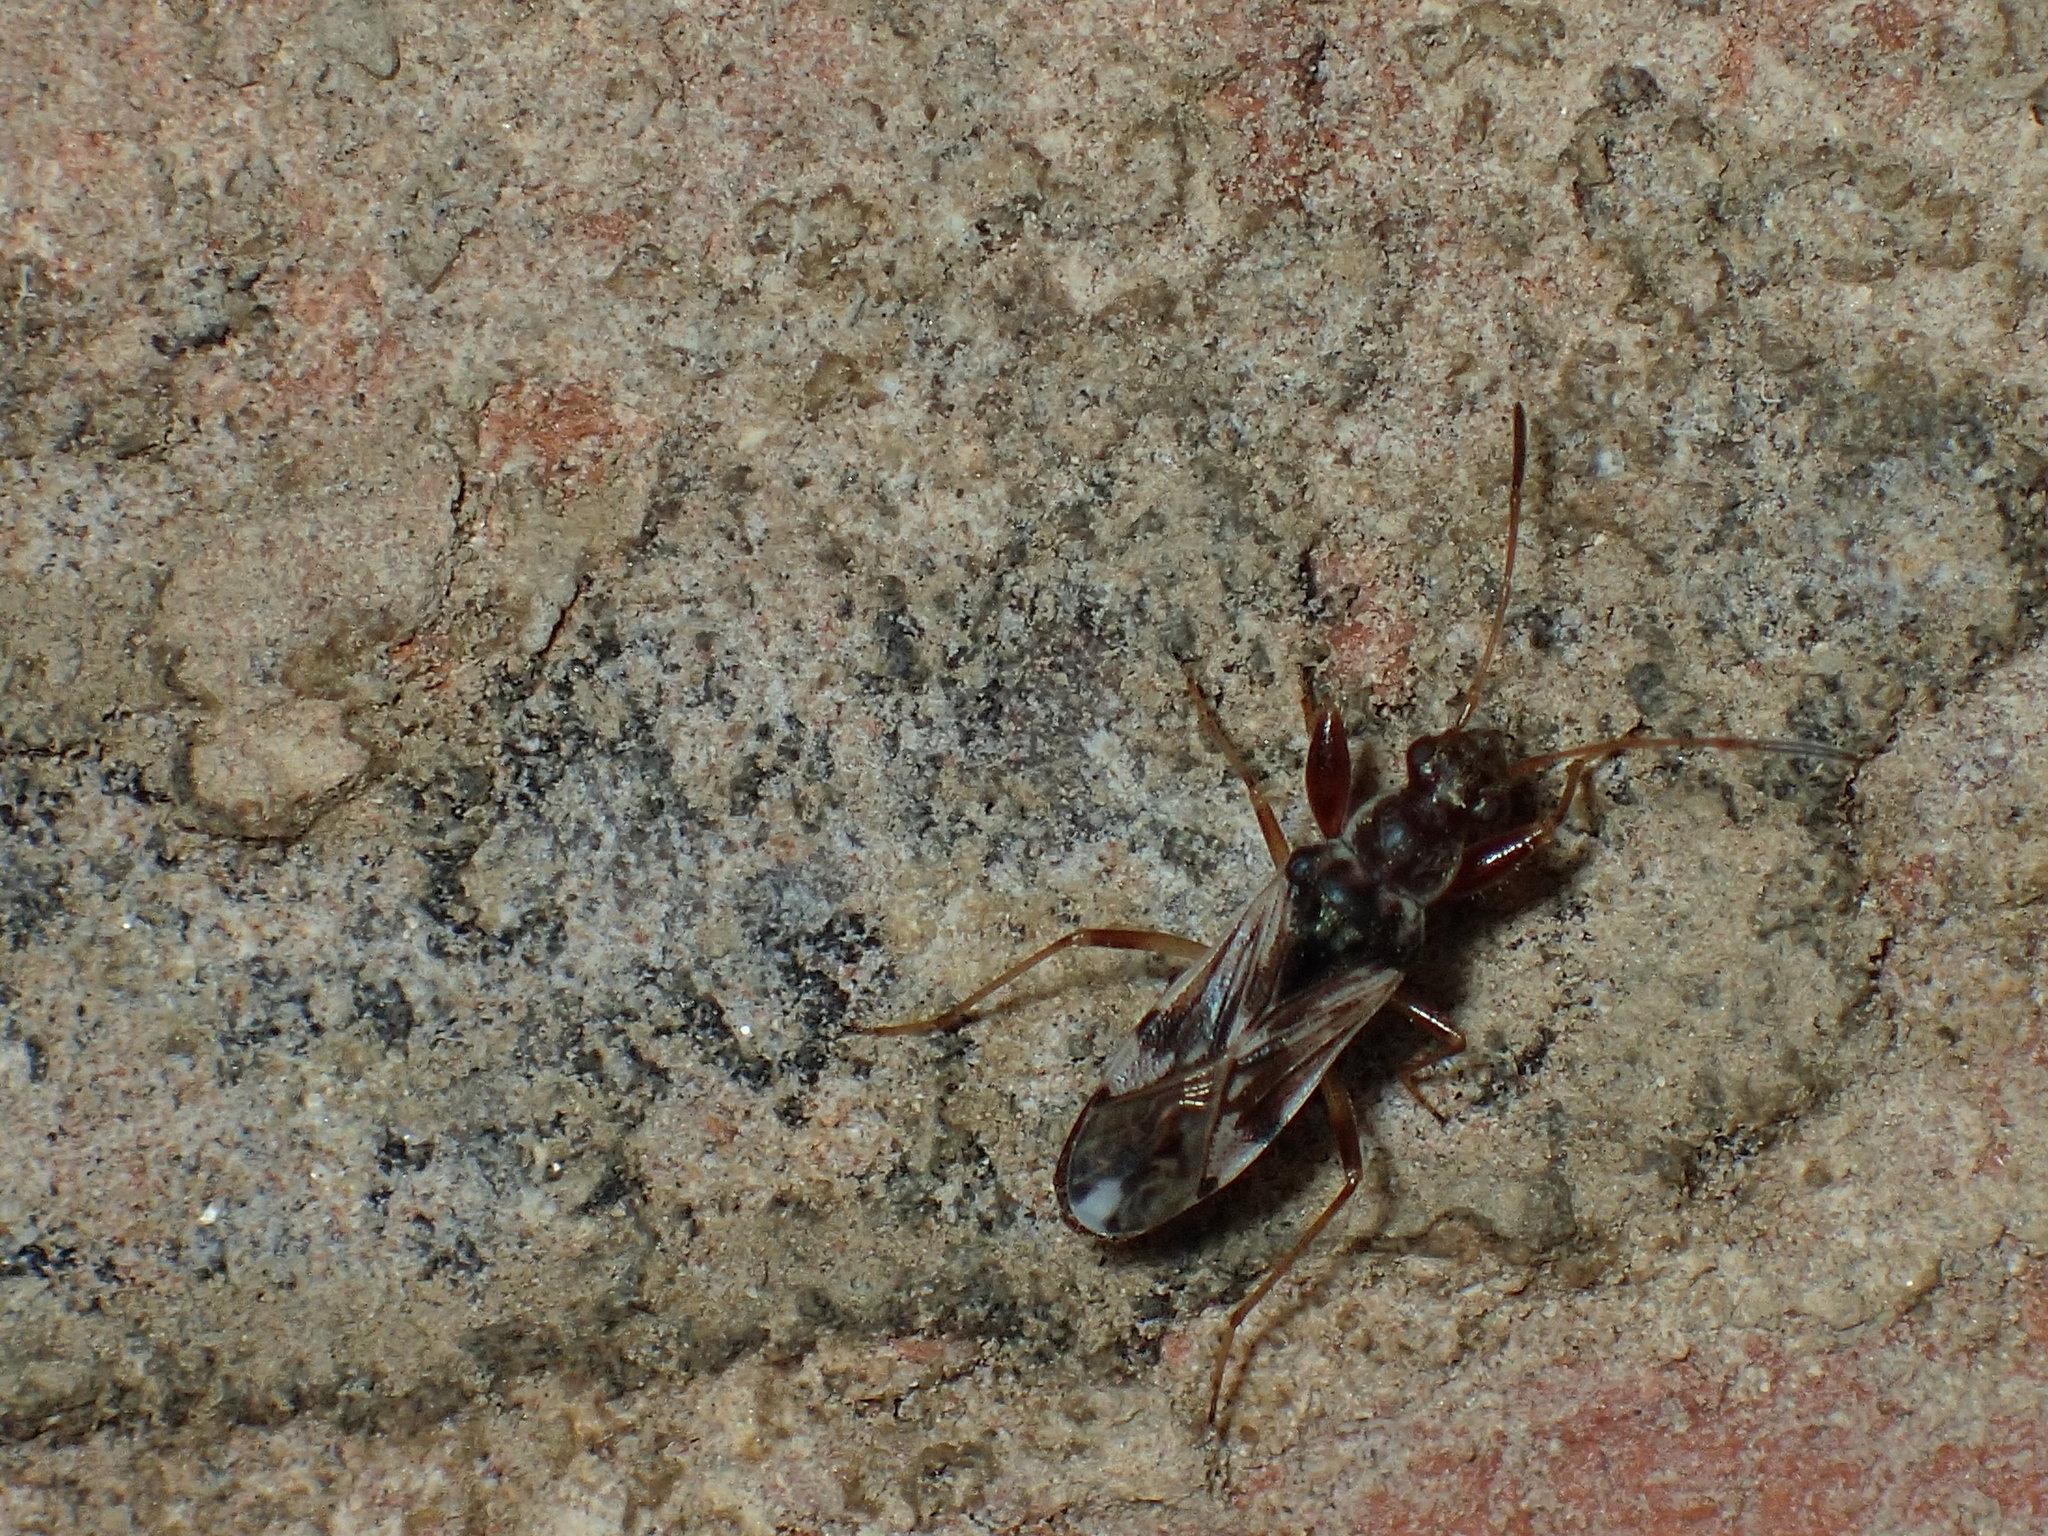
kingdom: Animalia
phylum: Arthropoda
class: Insecta
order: Hemiptera
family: Rhyparochromidae
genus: Neopamera
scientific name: Neopamera bilobata
